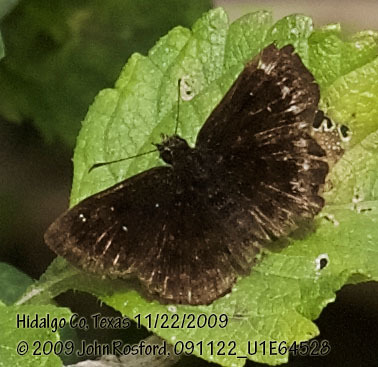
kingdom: Animalia
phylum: Arthropoda
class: Insecta
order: Lepidoptera
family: Hesperiidae
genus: Staphylus
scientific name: Staphylus mazans
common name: Mazans scallopwing
